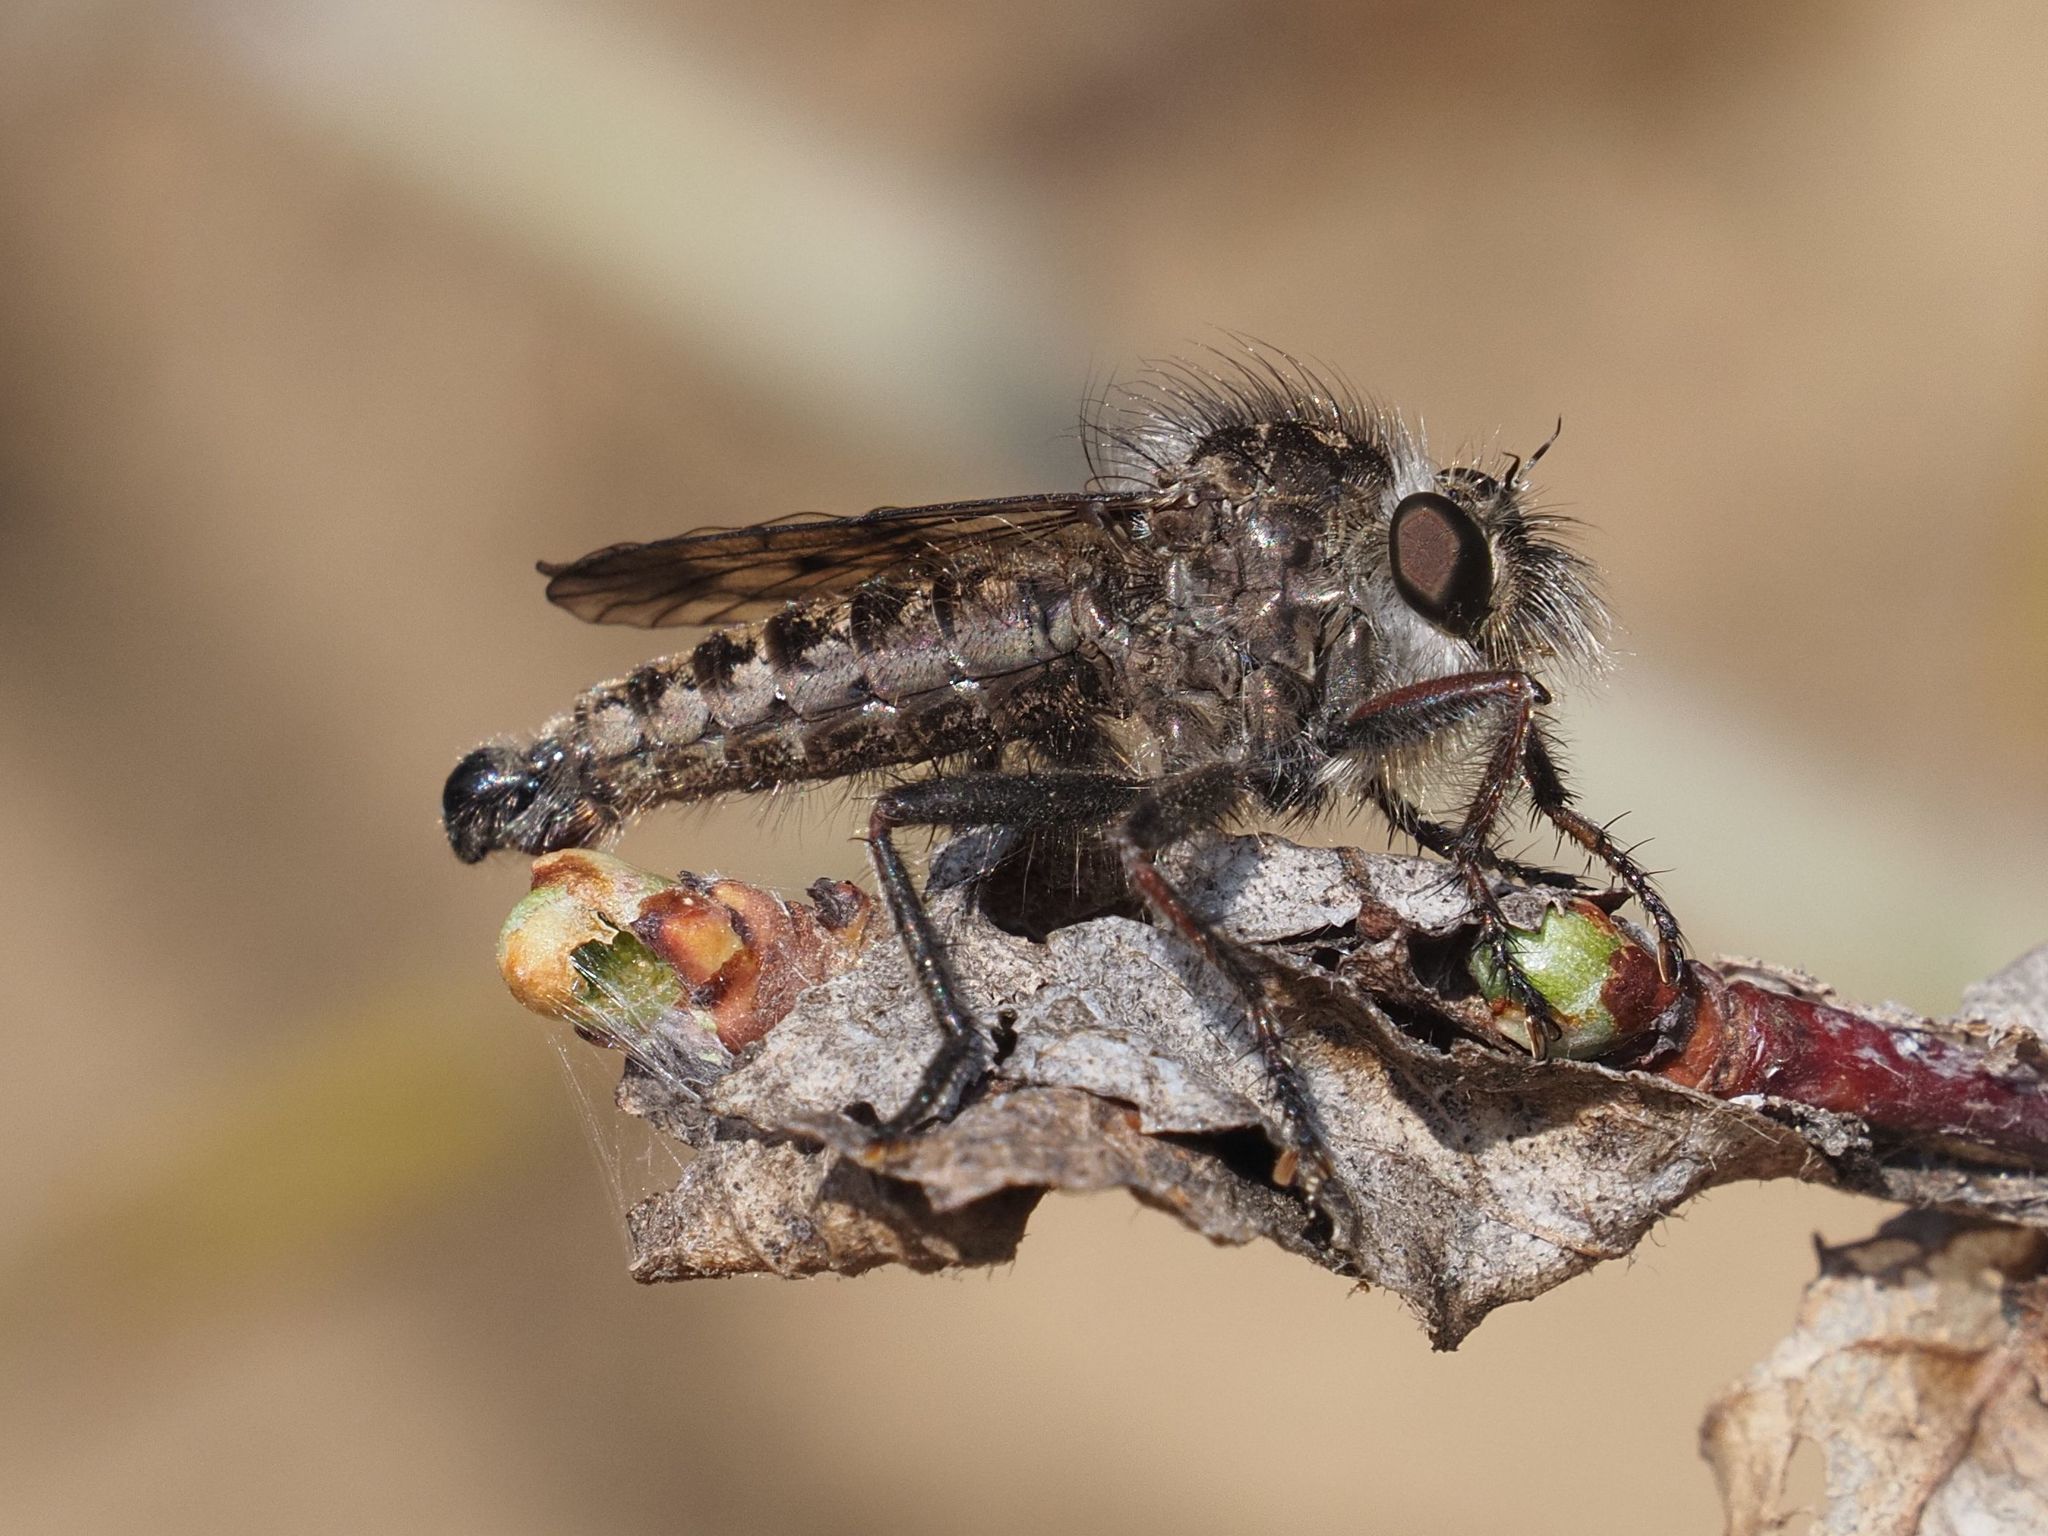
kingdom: Animalia
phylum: Arthropoda
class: Insecta
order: Diptera
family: Asilidae
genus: Erax
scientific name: Erax barbatus
